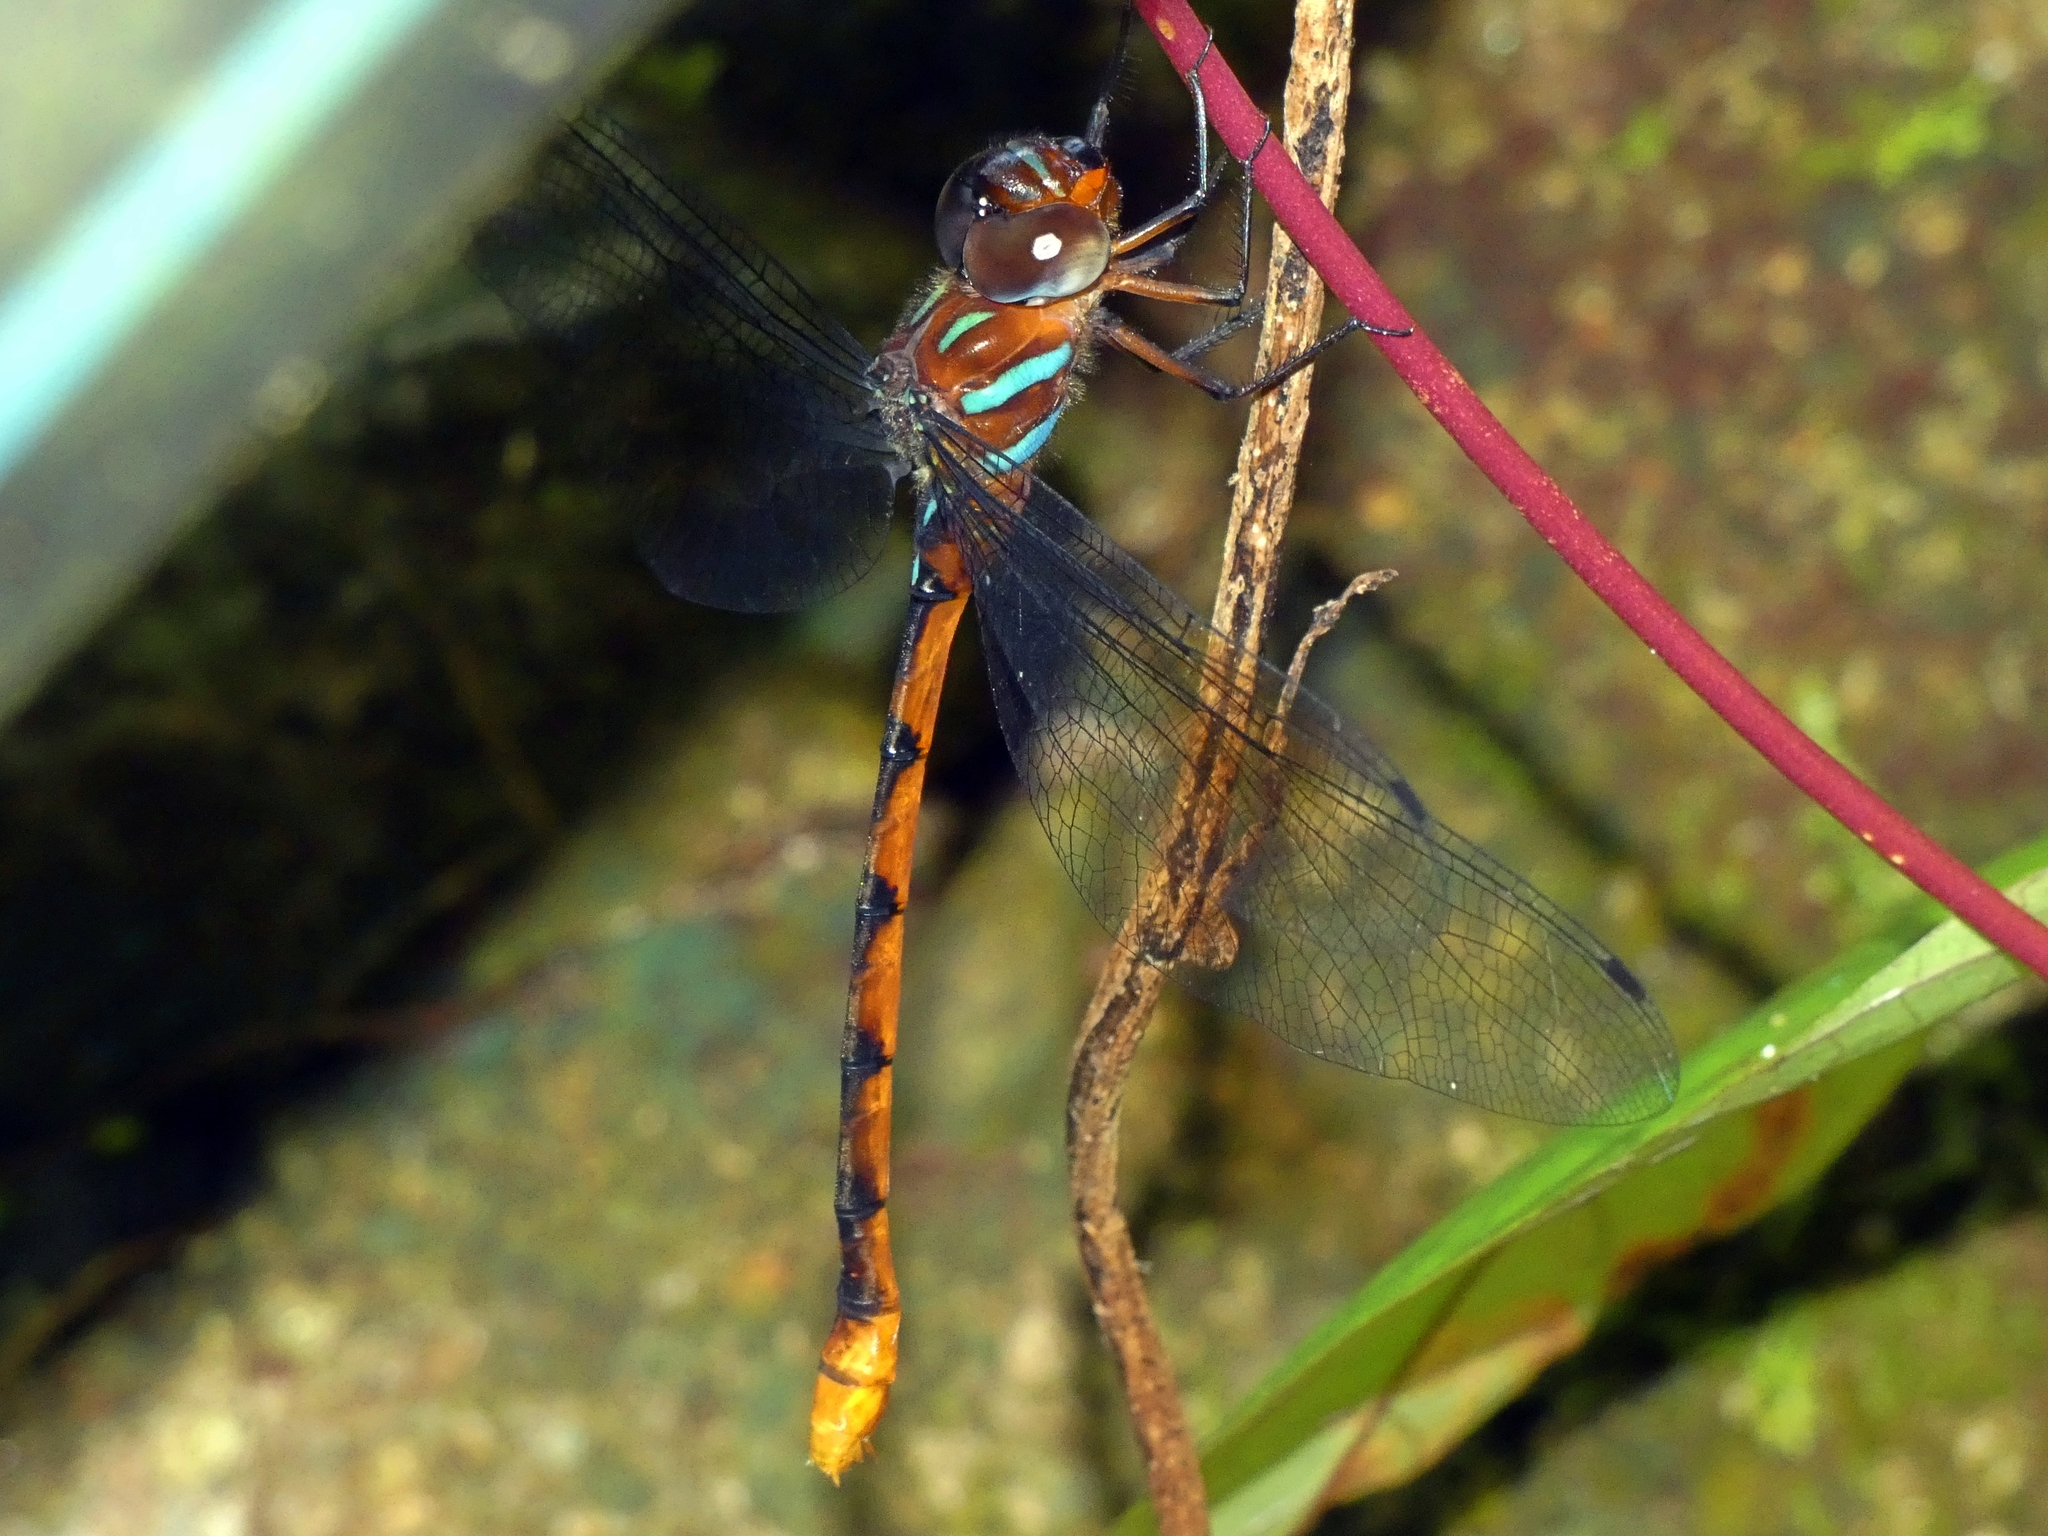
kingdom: Animalia
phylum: Arthropoda
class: Insecta
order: Odonata
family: Aeshnidae
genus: Dromaeschna
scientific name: Dromaeschna weiskei
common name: Ochre-tipped darner
